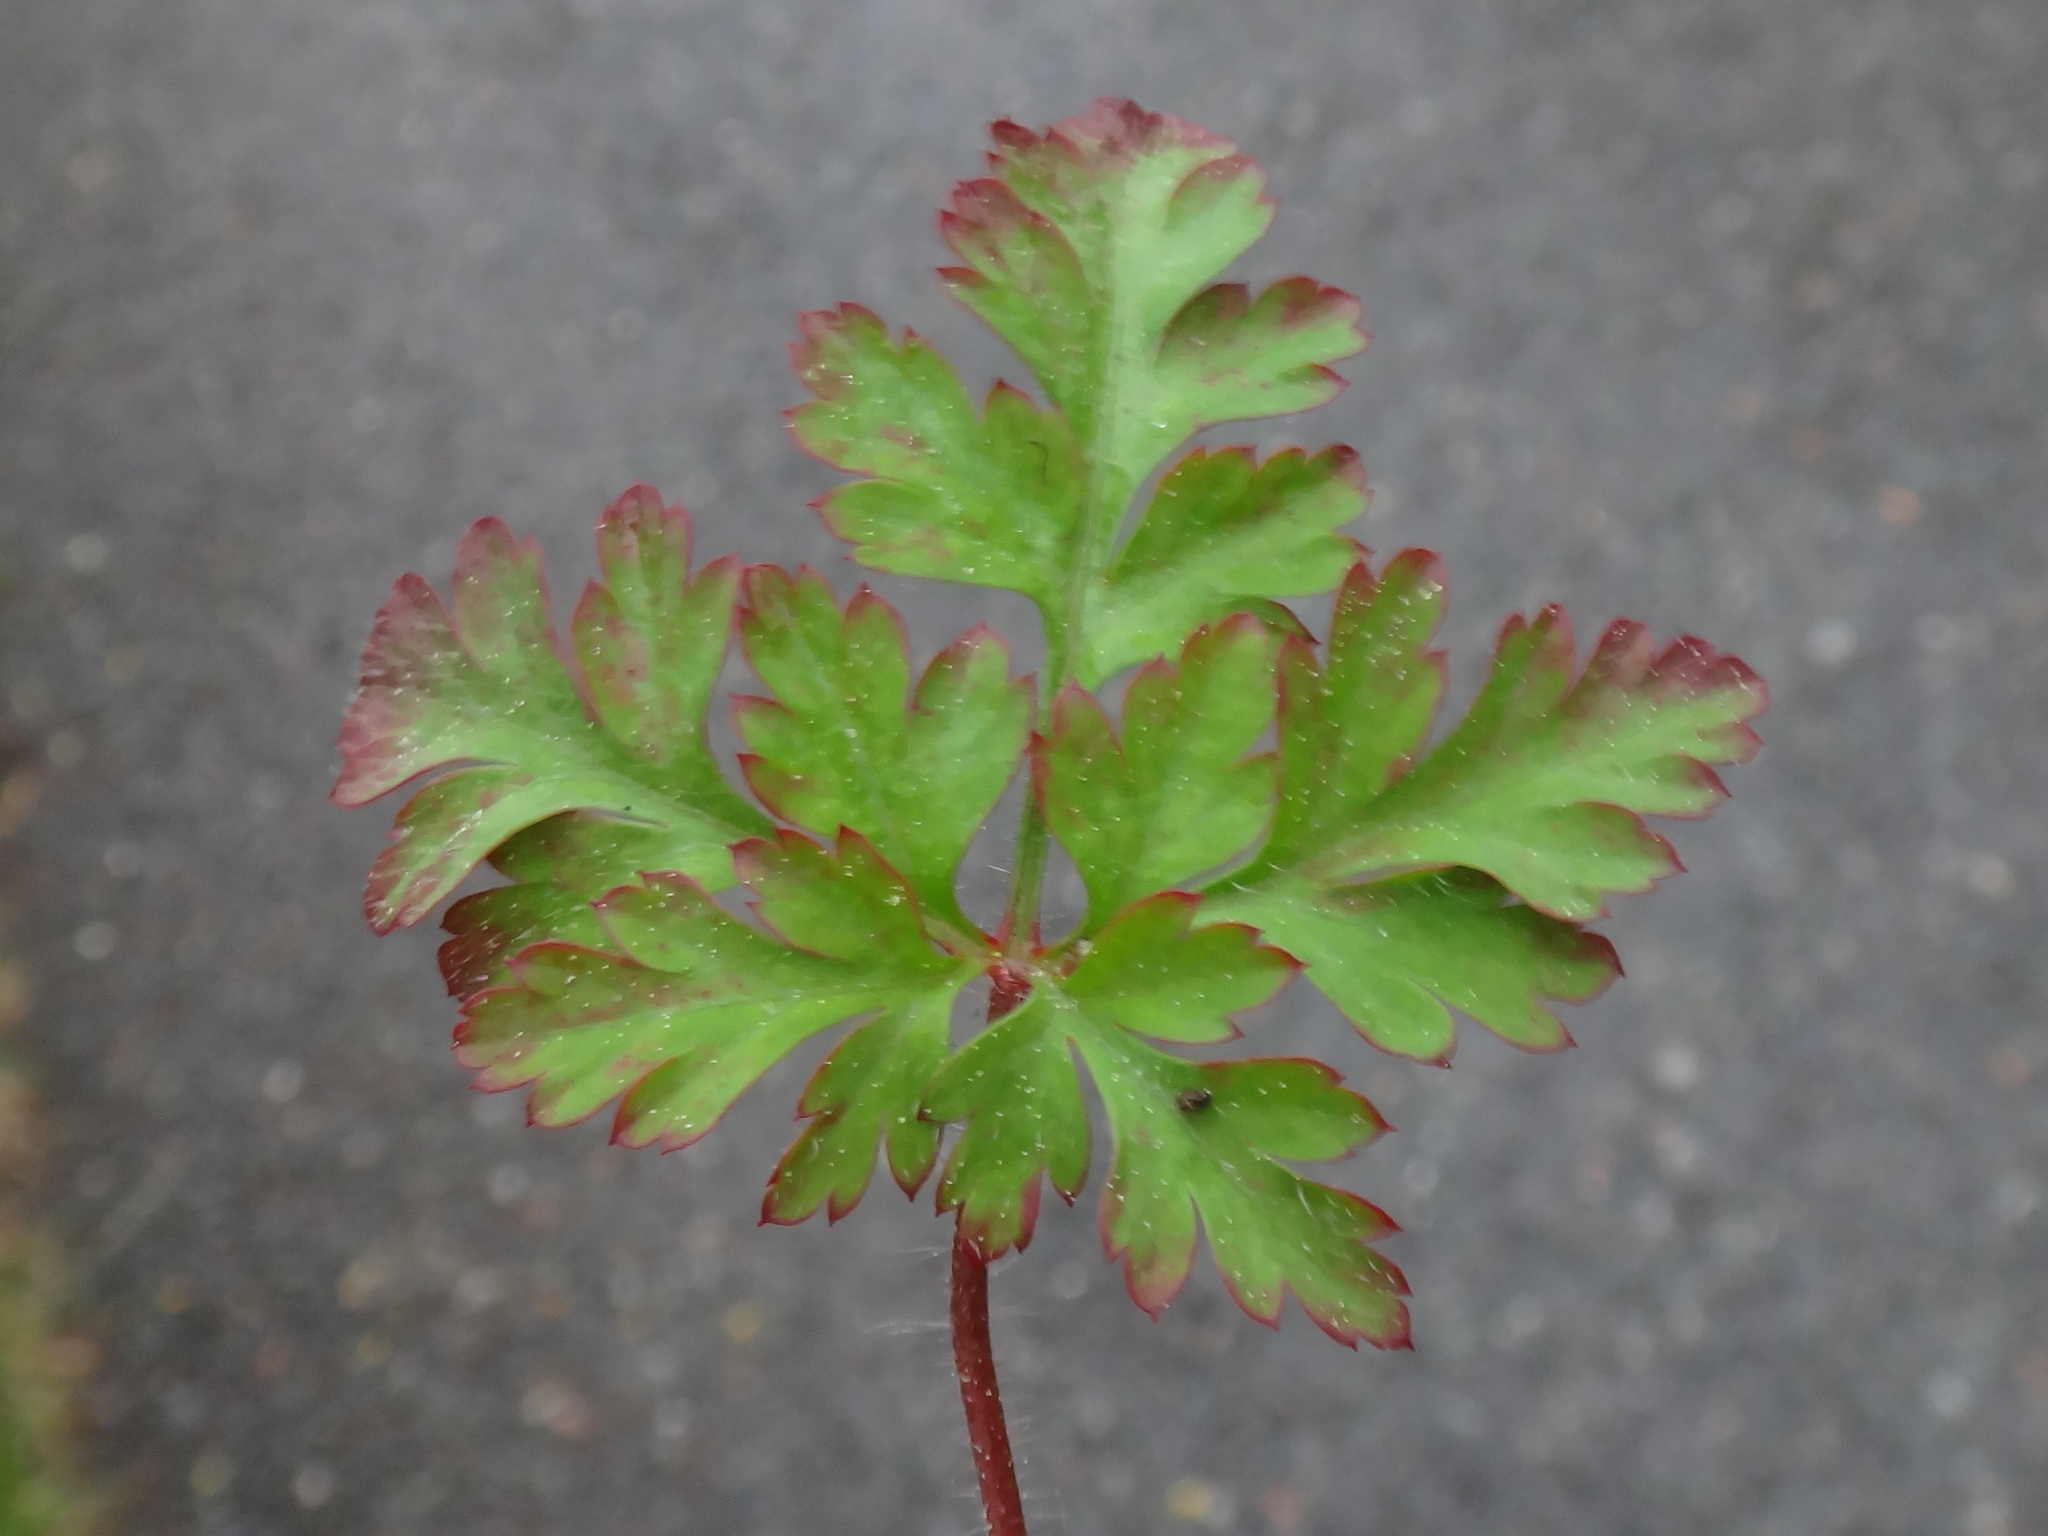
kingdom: Plantae
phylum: Tracheophyta
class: Magnoliopsida
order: Geraniales
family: Geraniaceae
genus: Geranium
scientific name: Geranium robertianum
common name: Herb-robert
